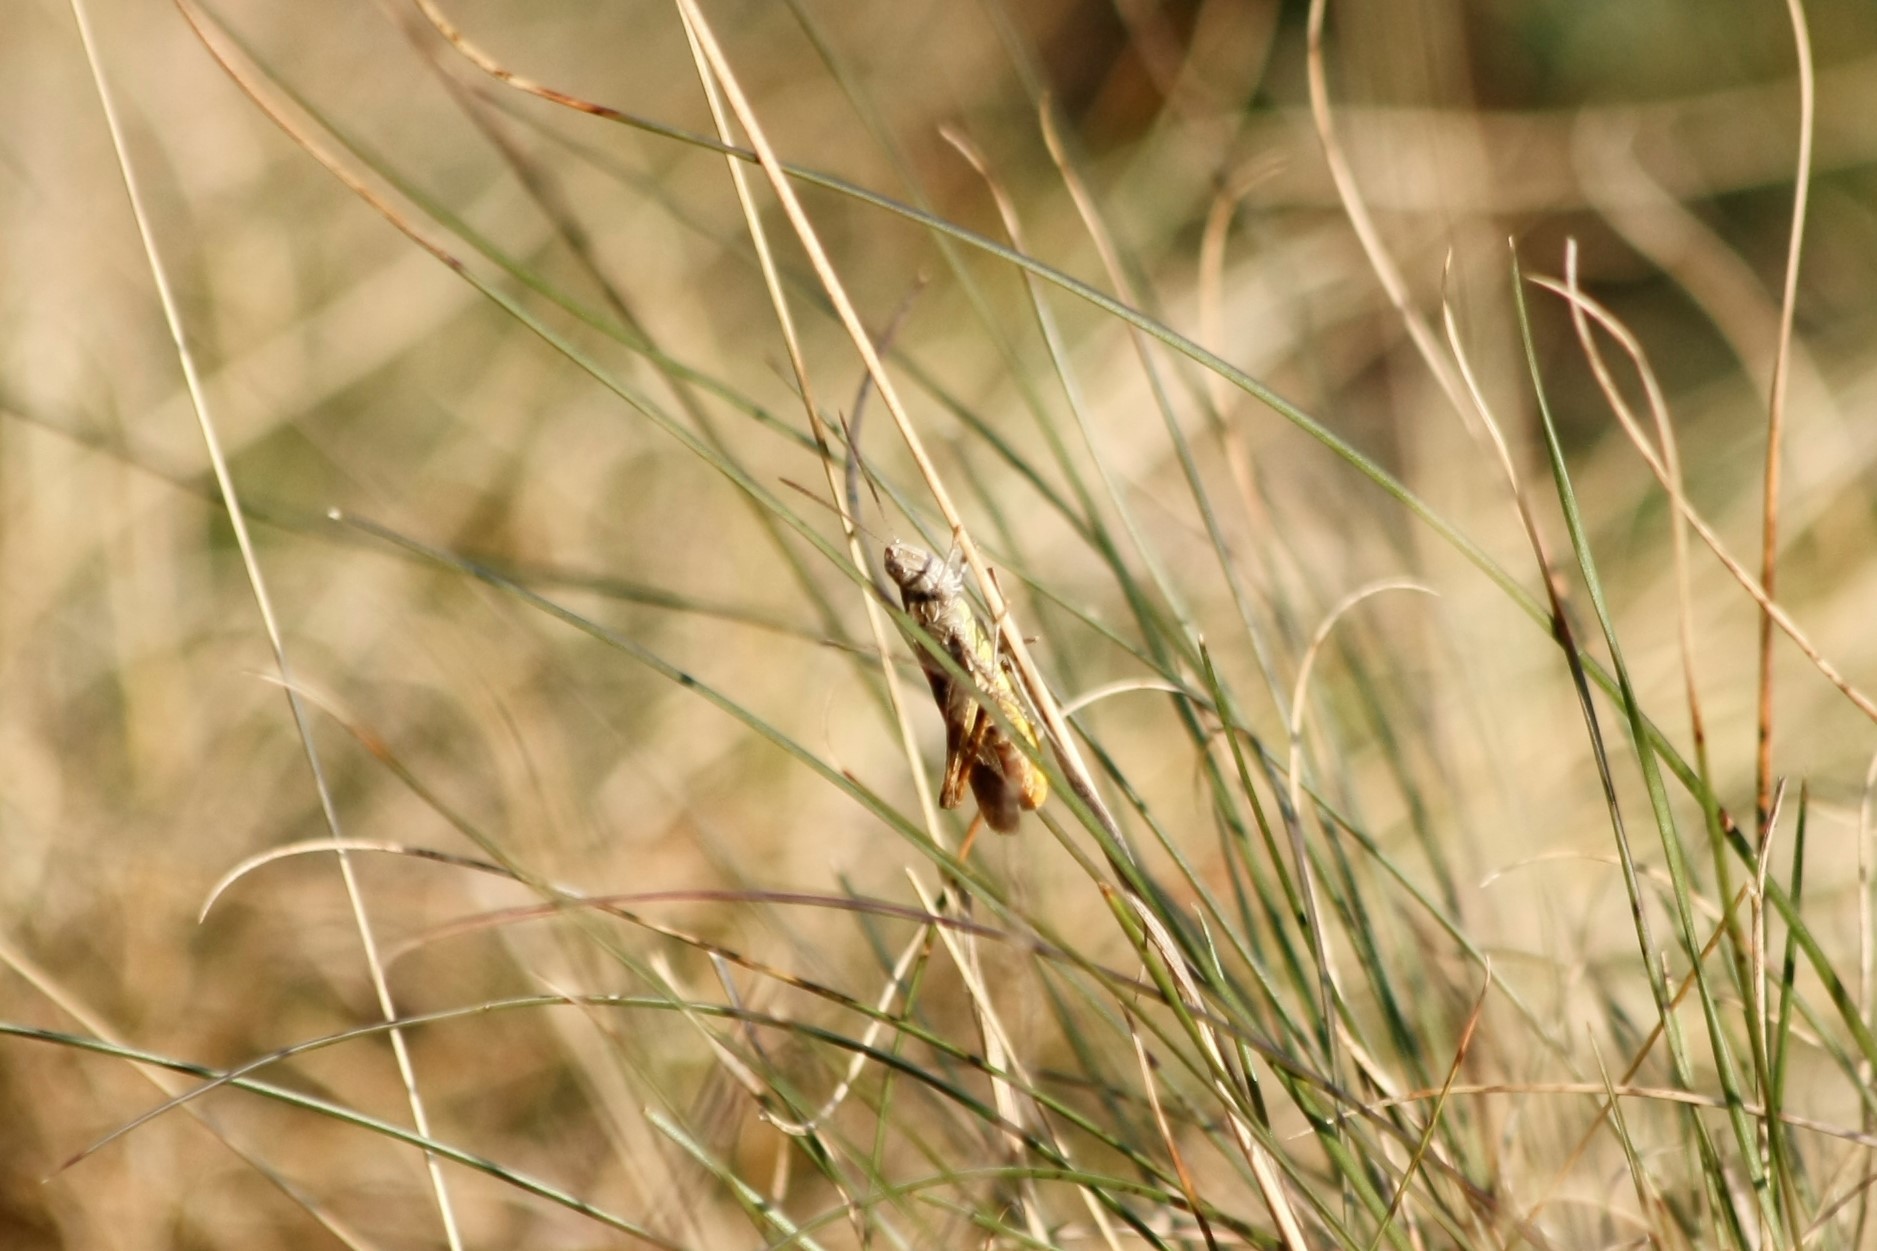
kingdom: Animalia
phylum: Arthropoda
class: Insecta
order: Orthoptera
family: Acrididae
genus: Chorthippus
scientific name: Chorthippus brunneus
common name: Field grasshopper
